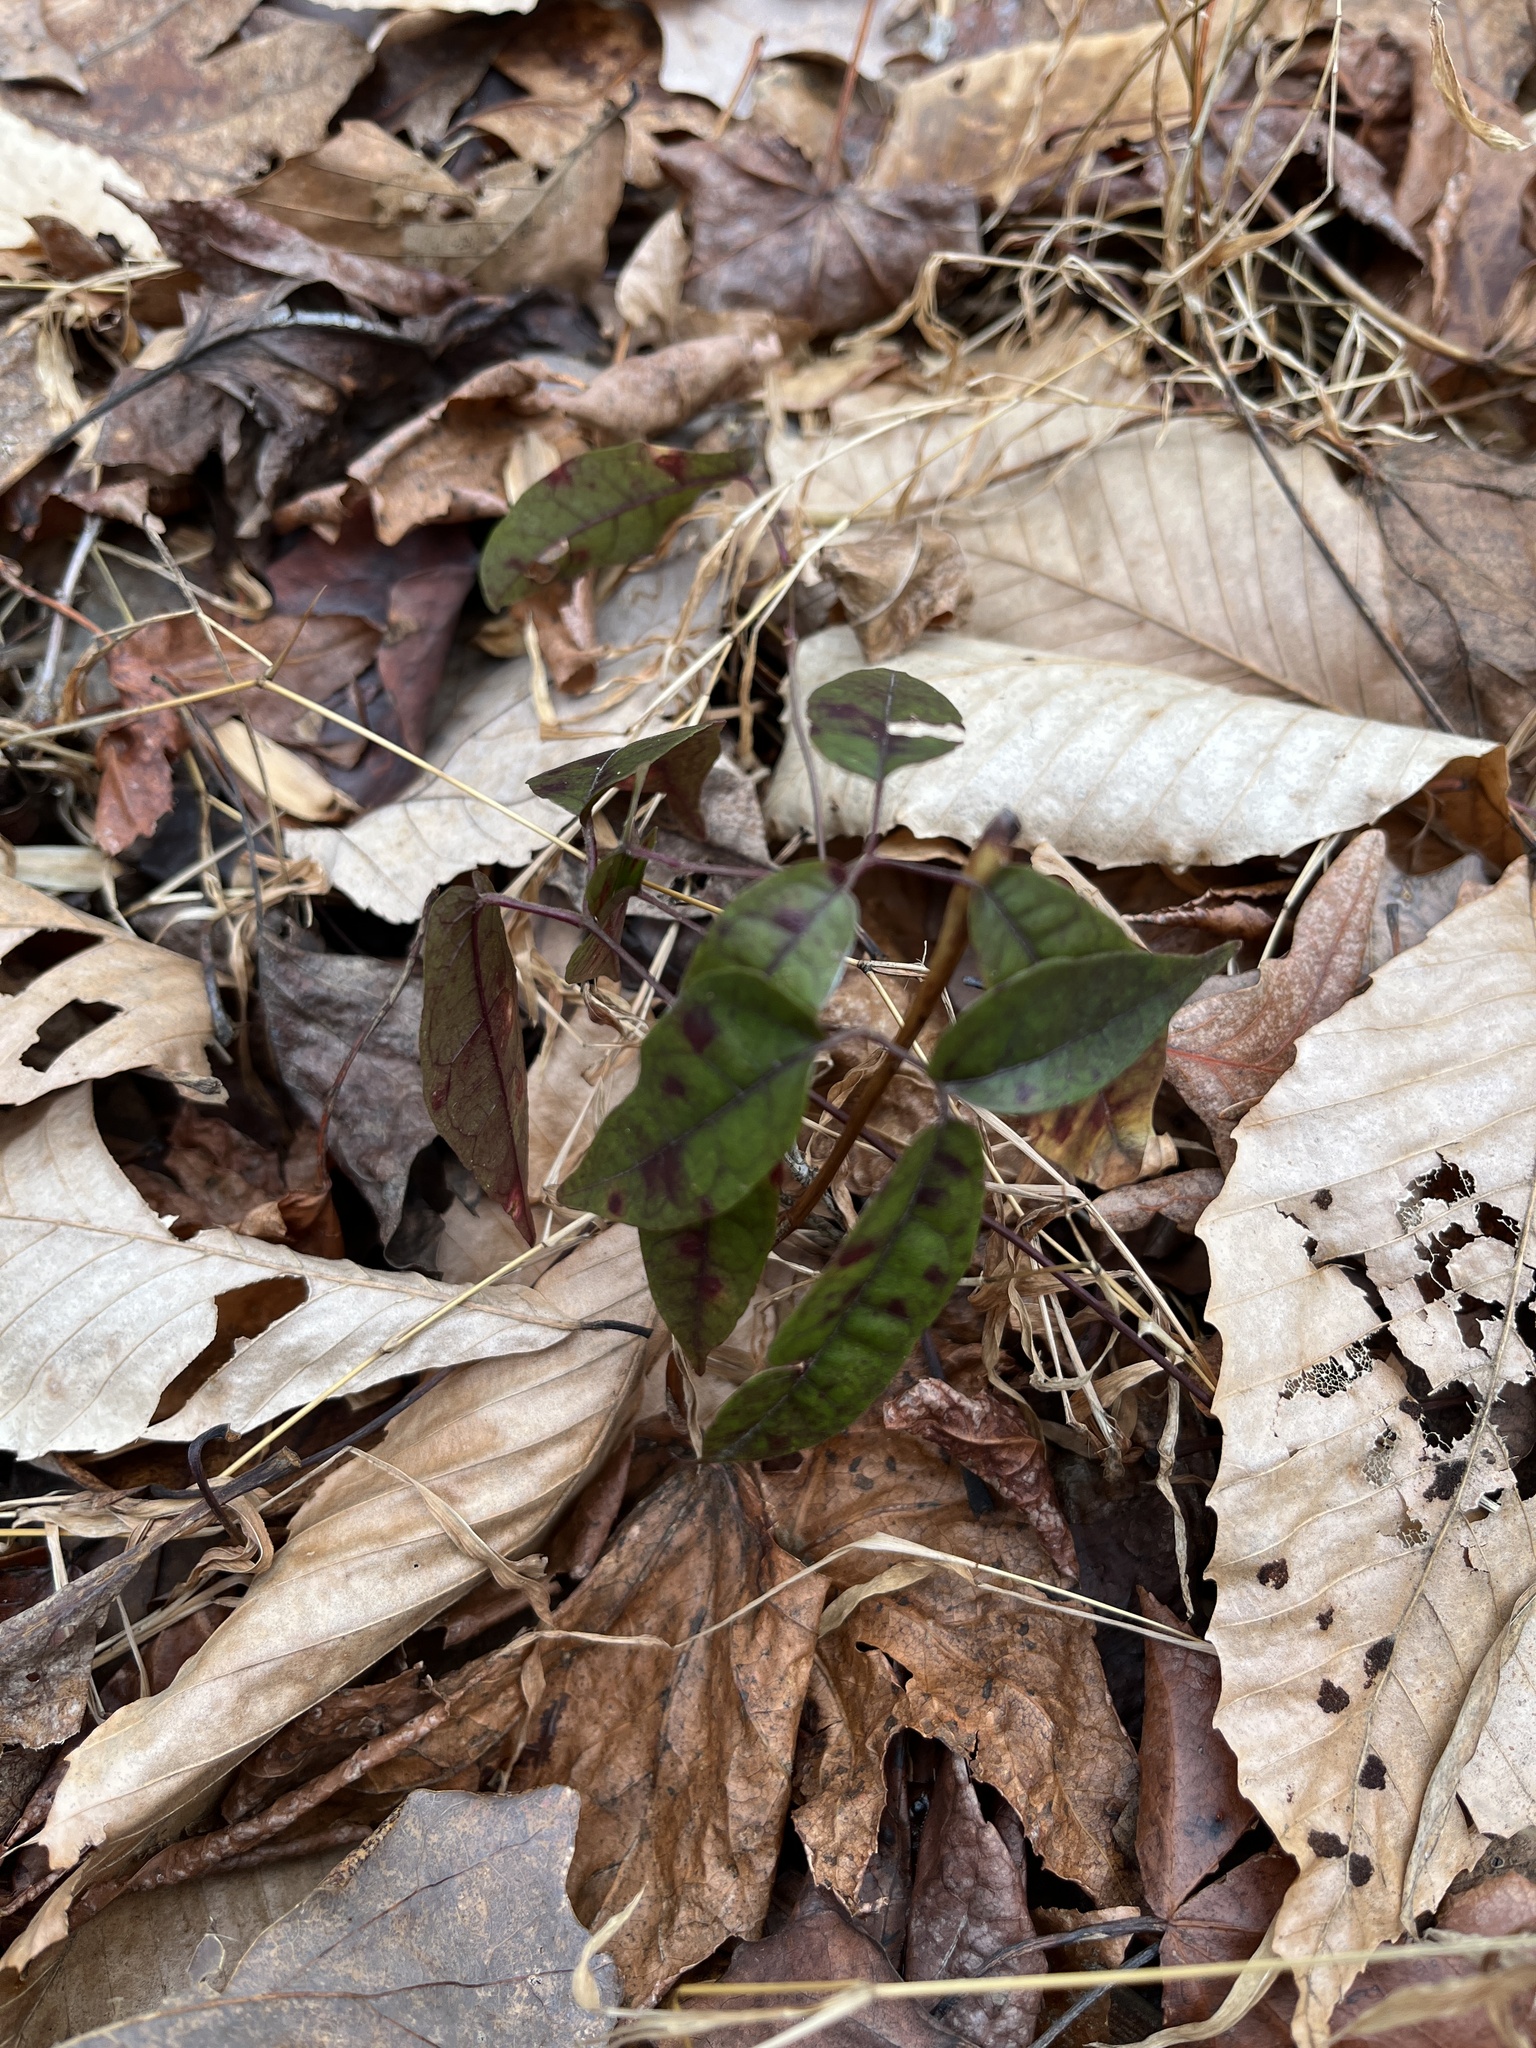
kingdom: Plantae
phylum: Tracheophyta
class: Magnoliopsida
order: Lamiales
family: Bignoniaceae
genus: Bignonia
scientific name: Bignonia capreolata
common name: Crossvine
